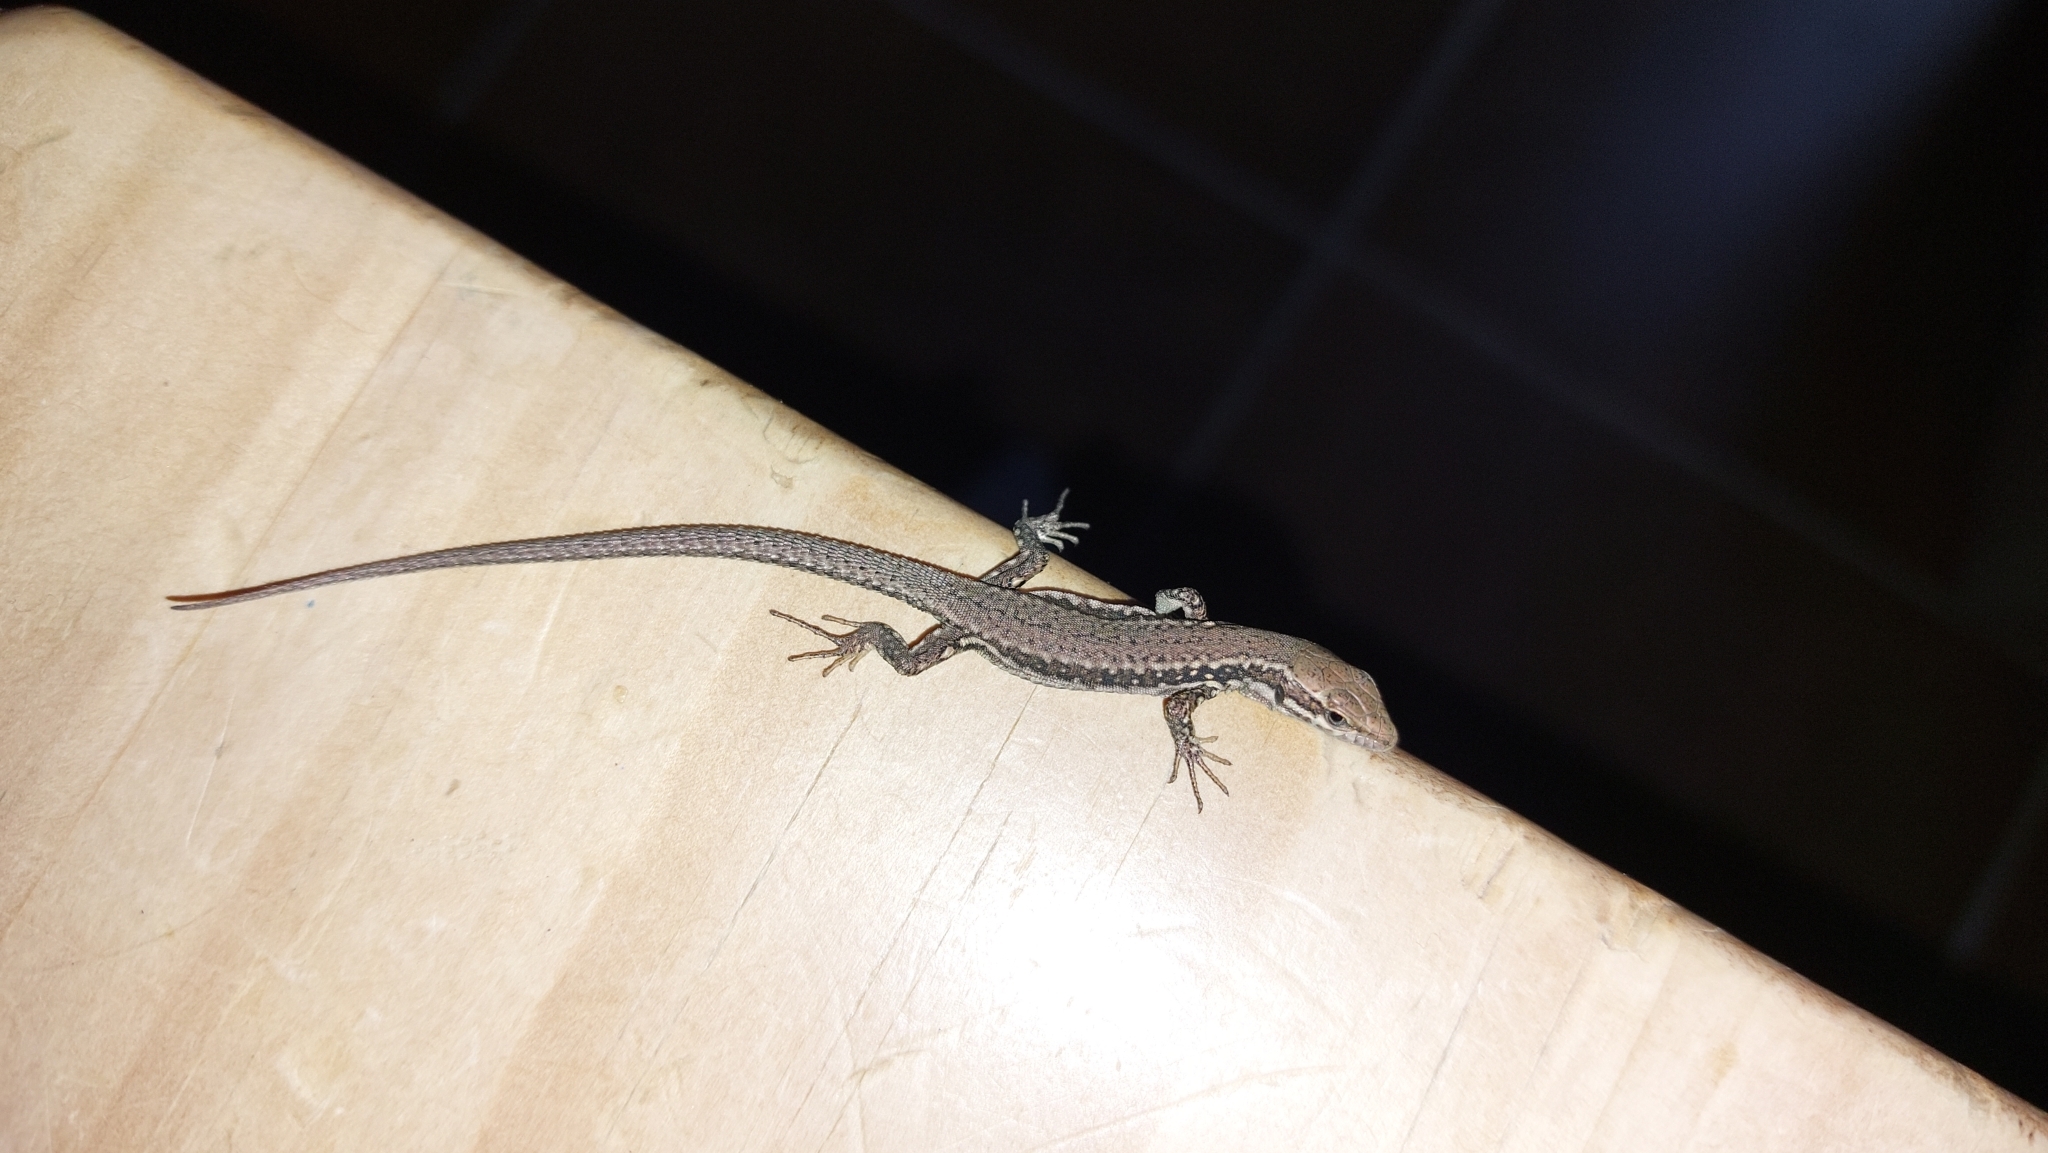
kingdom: Animalia
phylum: Chordata
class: Squamata
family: Lacertidae
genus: Podarcis
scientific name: Podarcis muralis
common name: Common wall lizard
